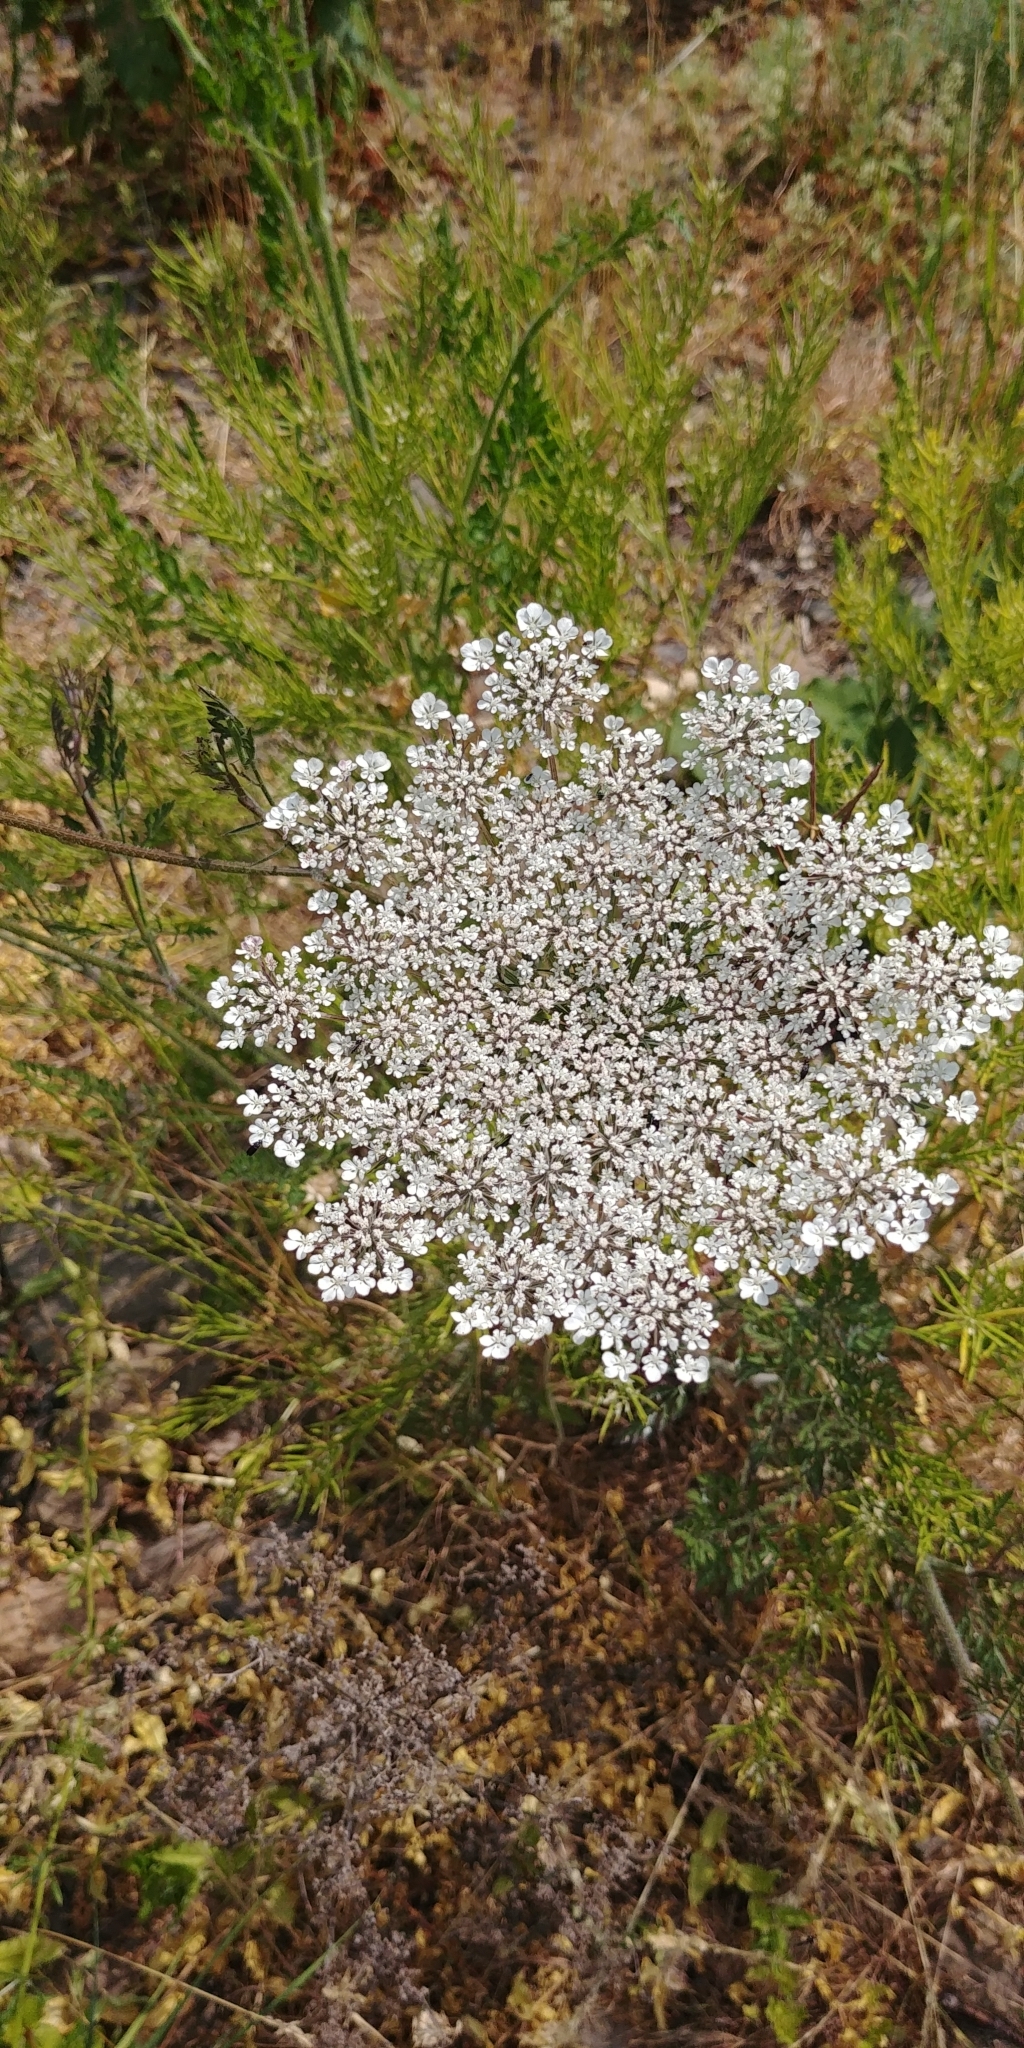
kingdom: Plantae
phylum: Tracheophyta
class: Magnoliopsida
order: Apiales
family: Apiaceae
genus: Daucus
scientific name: Daucus carota
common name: Wild carrot
